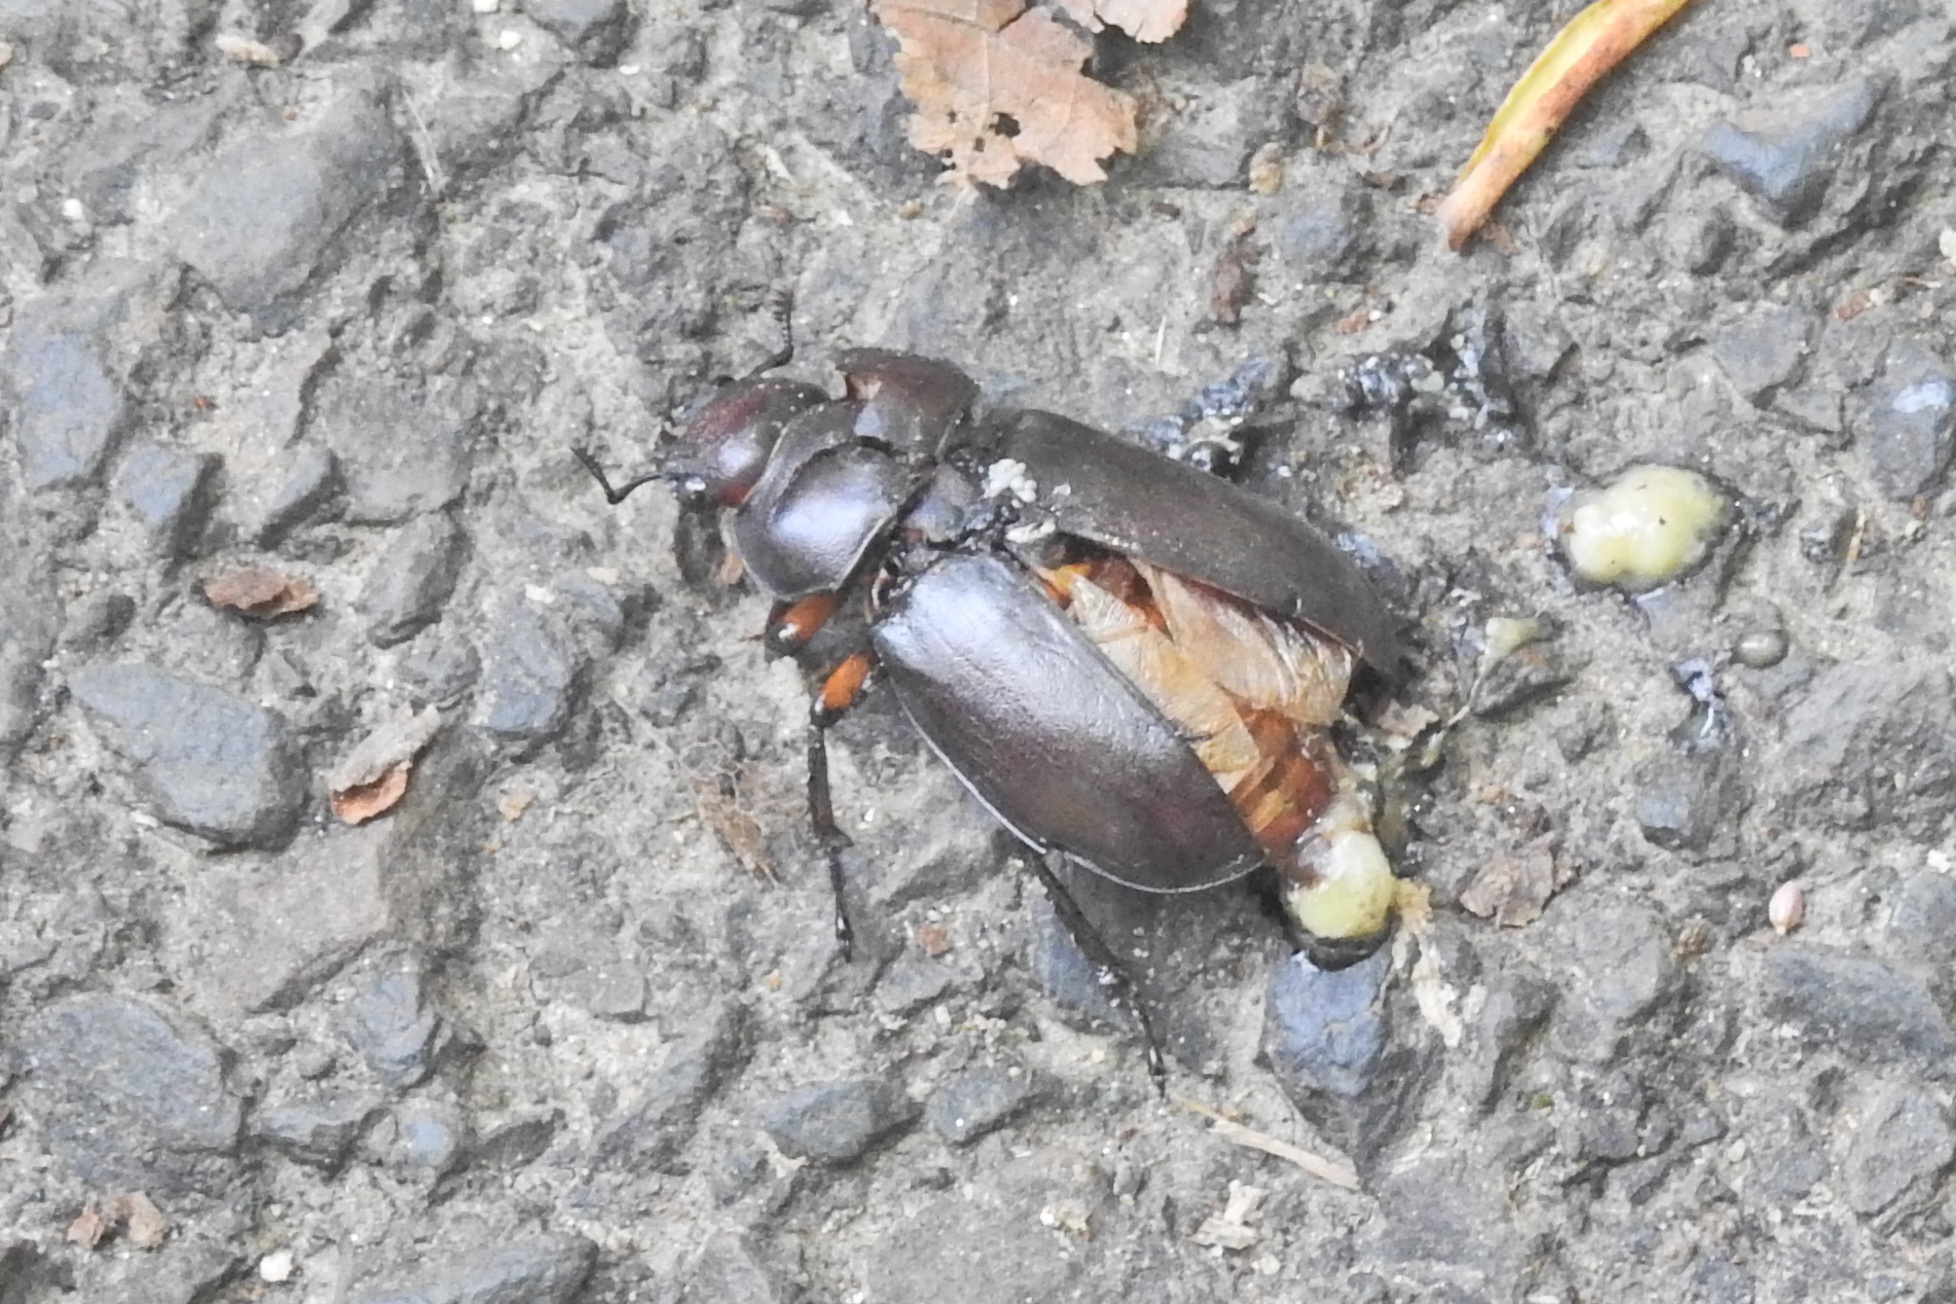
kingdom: Animalia
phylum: Arthropoda
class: Insecta
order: Coleoptera
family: Lucanidae
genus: Lucanus
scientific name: Lucanus capreolus
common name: Stag beetle
